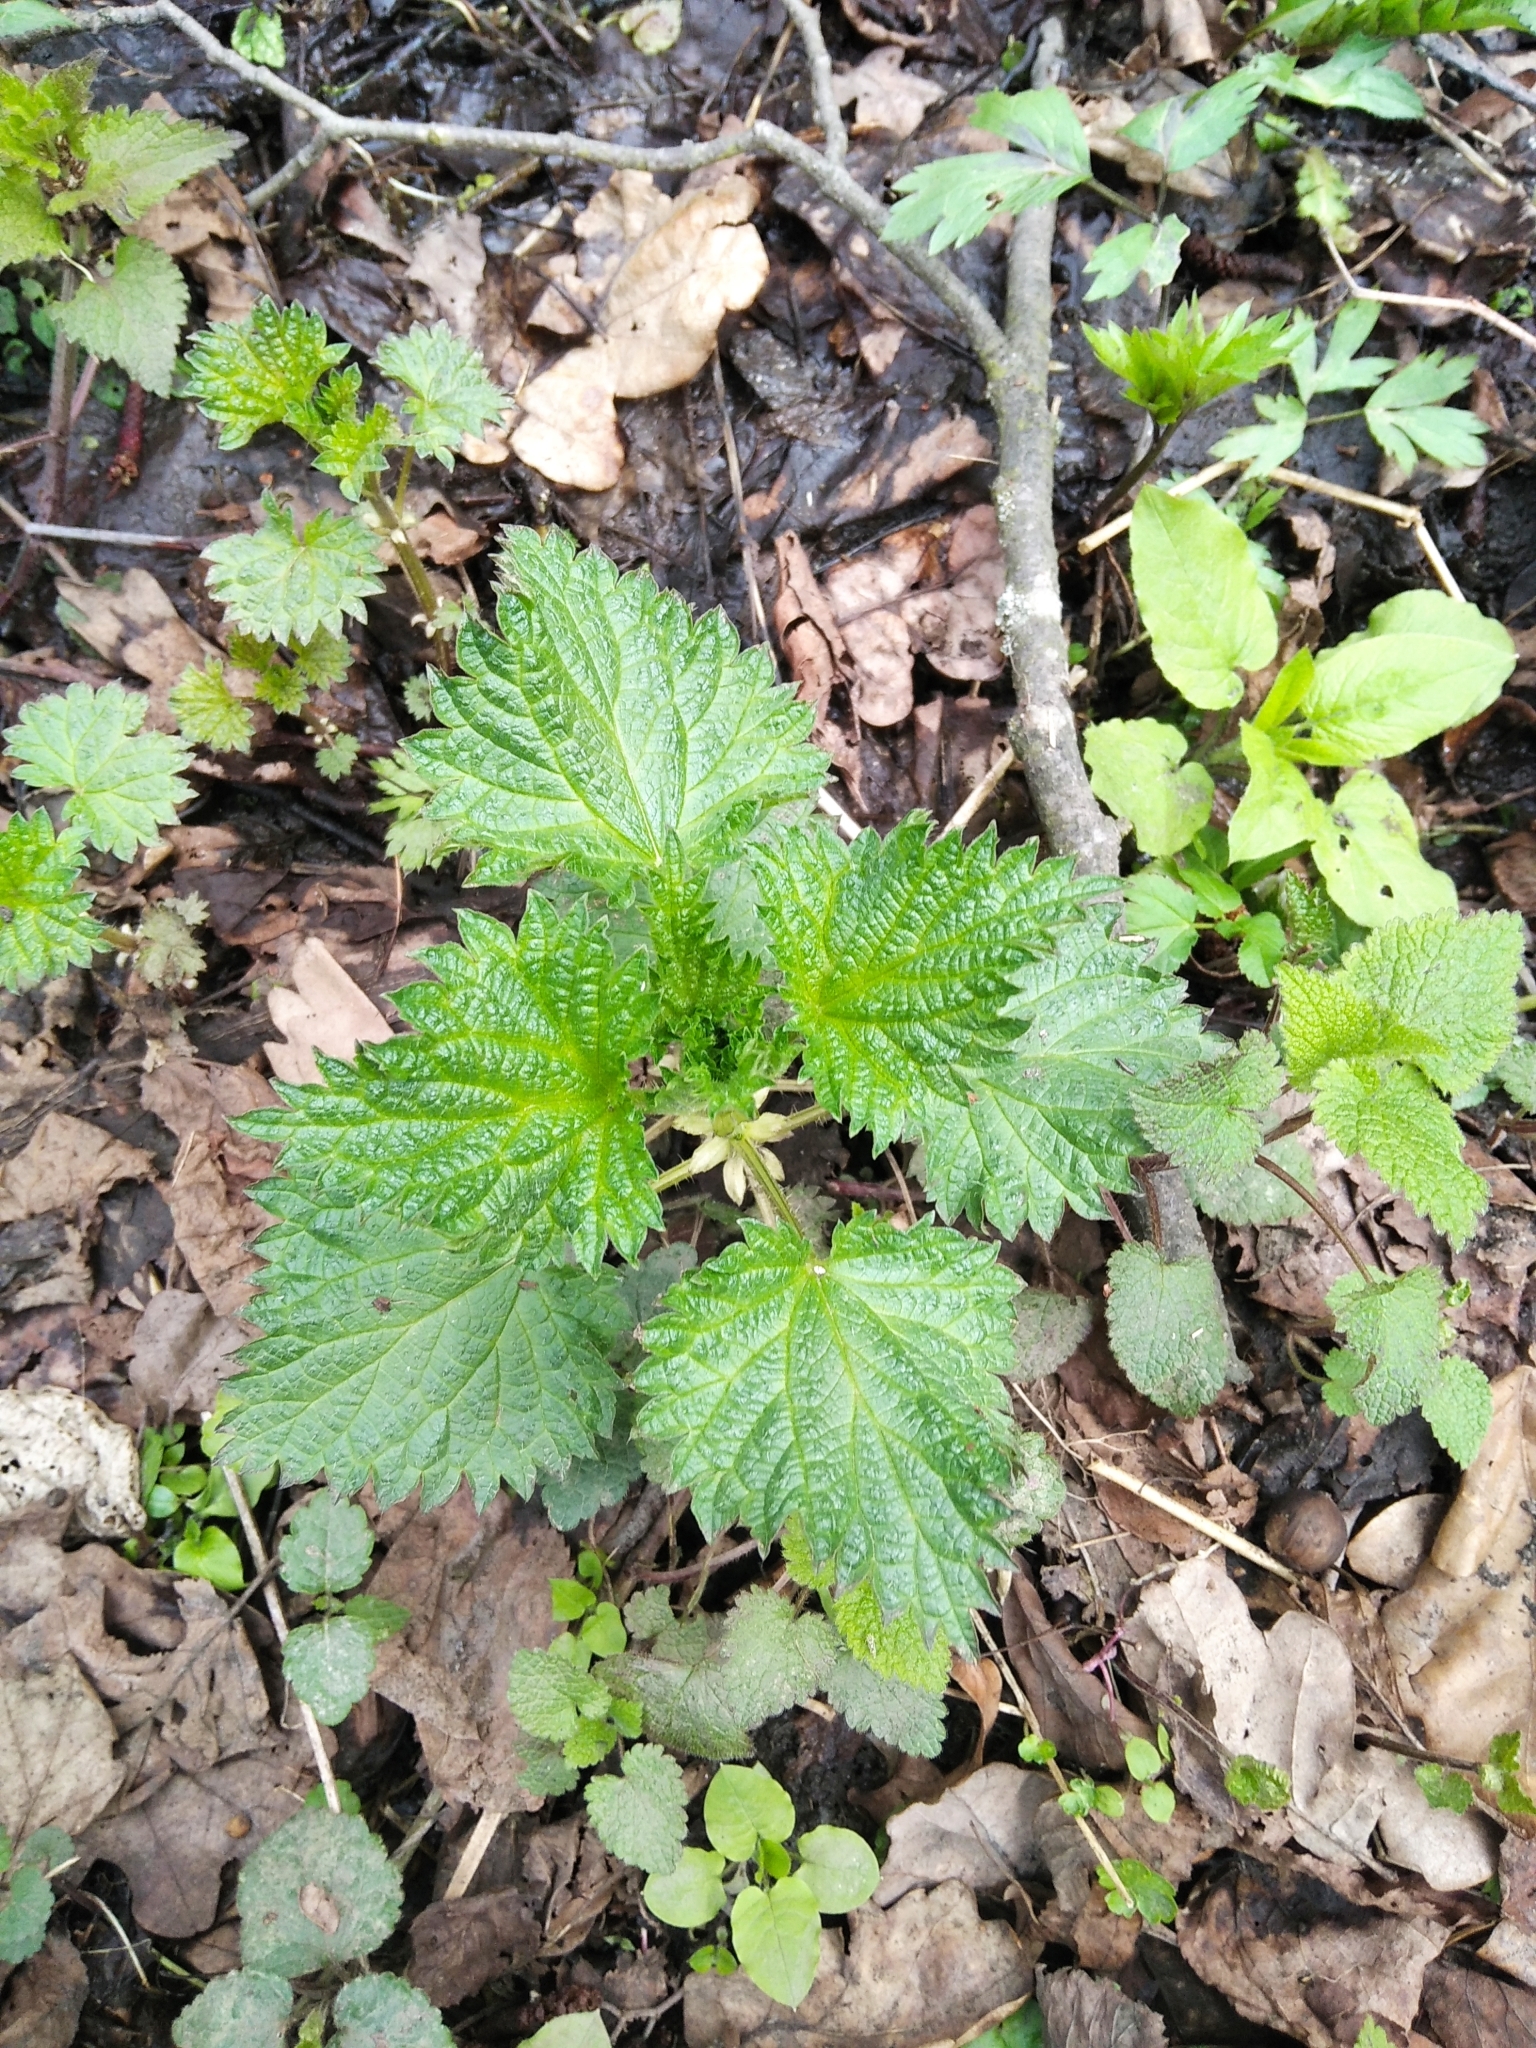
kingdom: Plantae
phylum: Tracheophyta
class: Magnoliopsida
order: Rosales
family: Urticaceae
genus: Urtica
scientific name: Urtica dioica
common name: Common nettle
